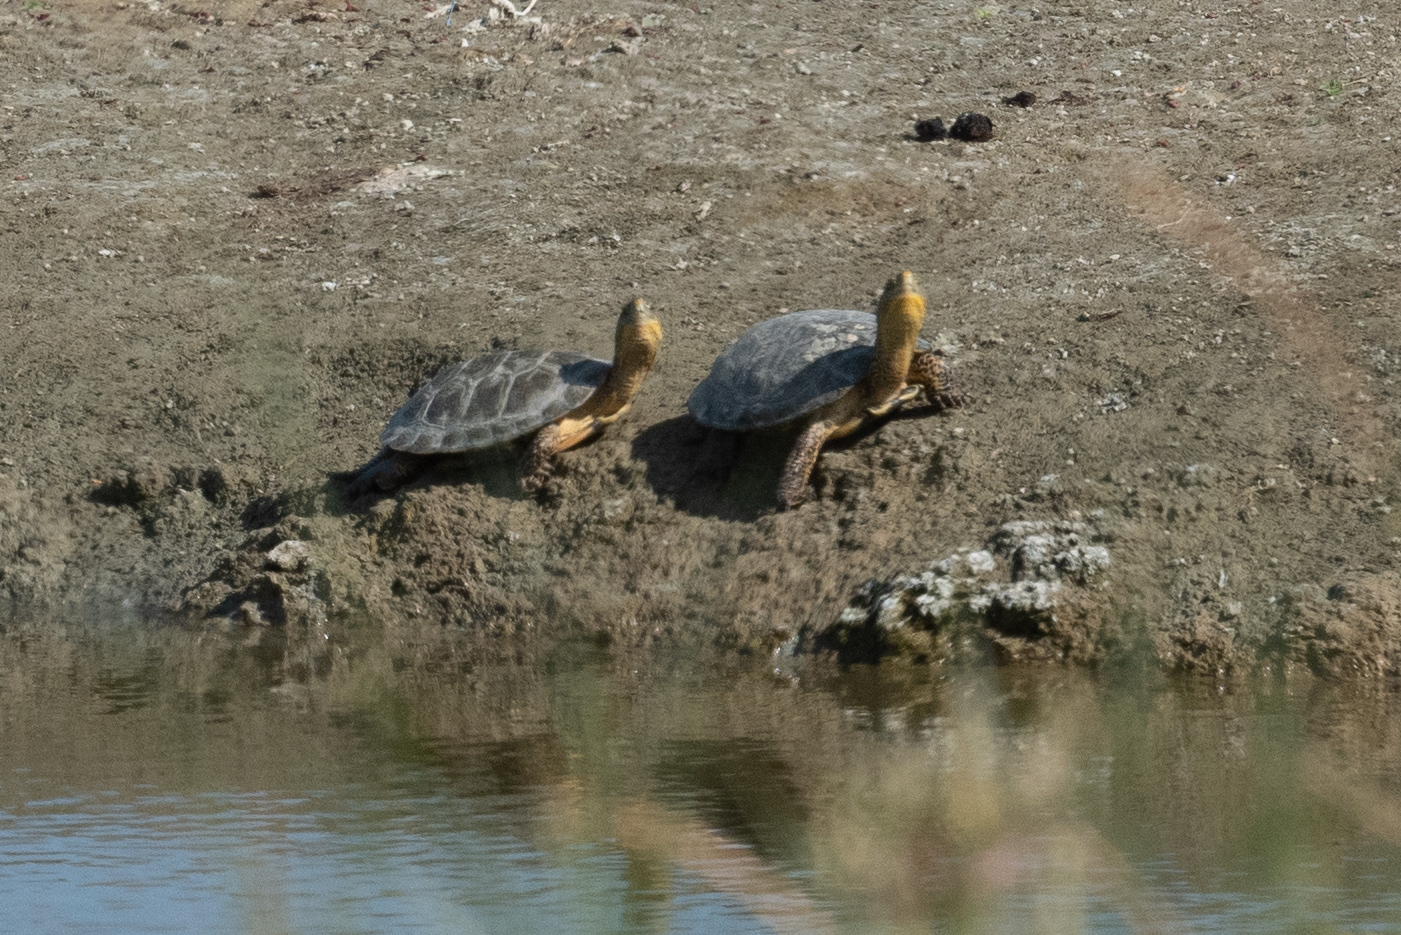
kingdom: Animalia
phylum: Chordata
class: Testudines
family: Emydidae
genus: Actinemys
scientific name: Actinemys marmorata
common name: Western pond turtle
